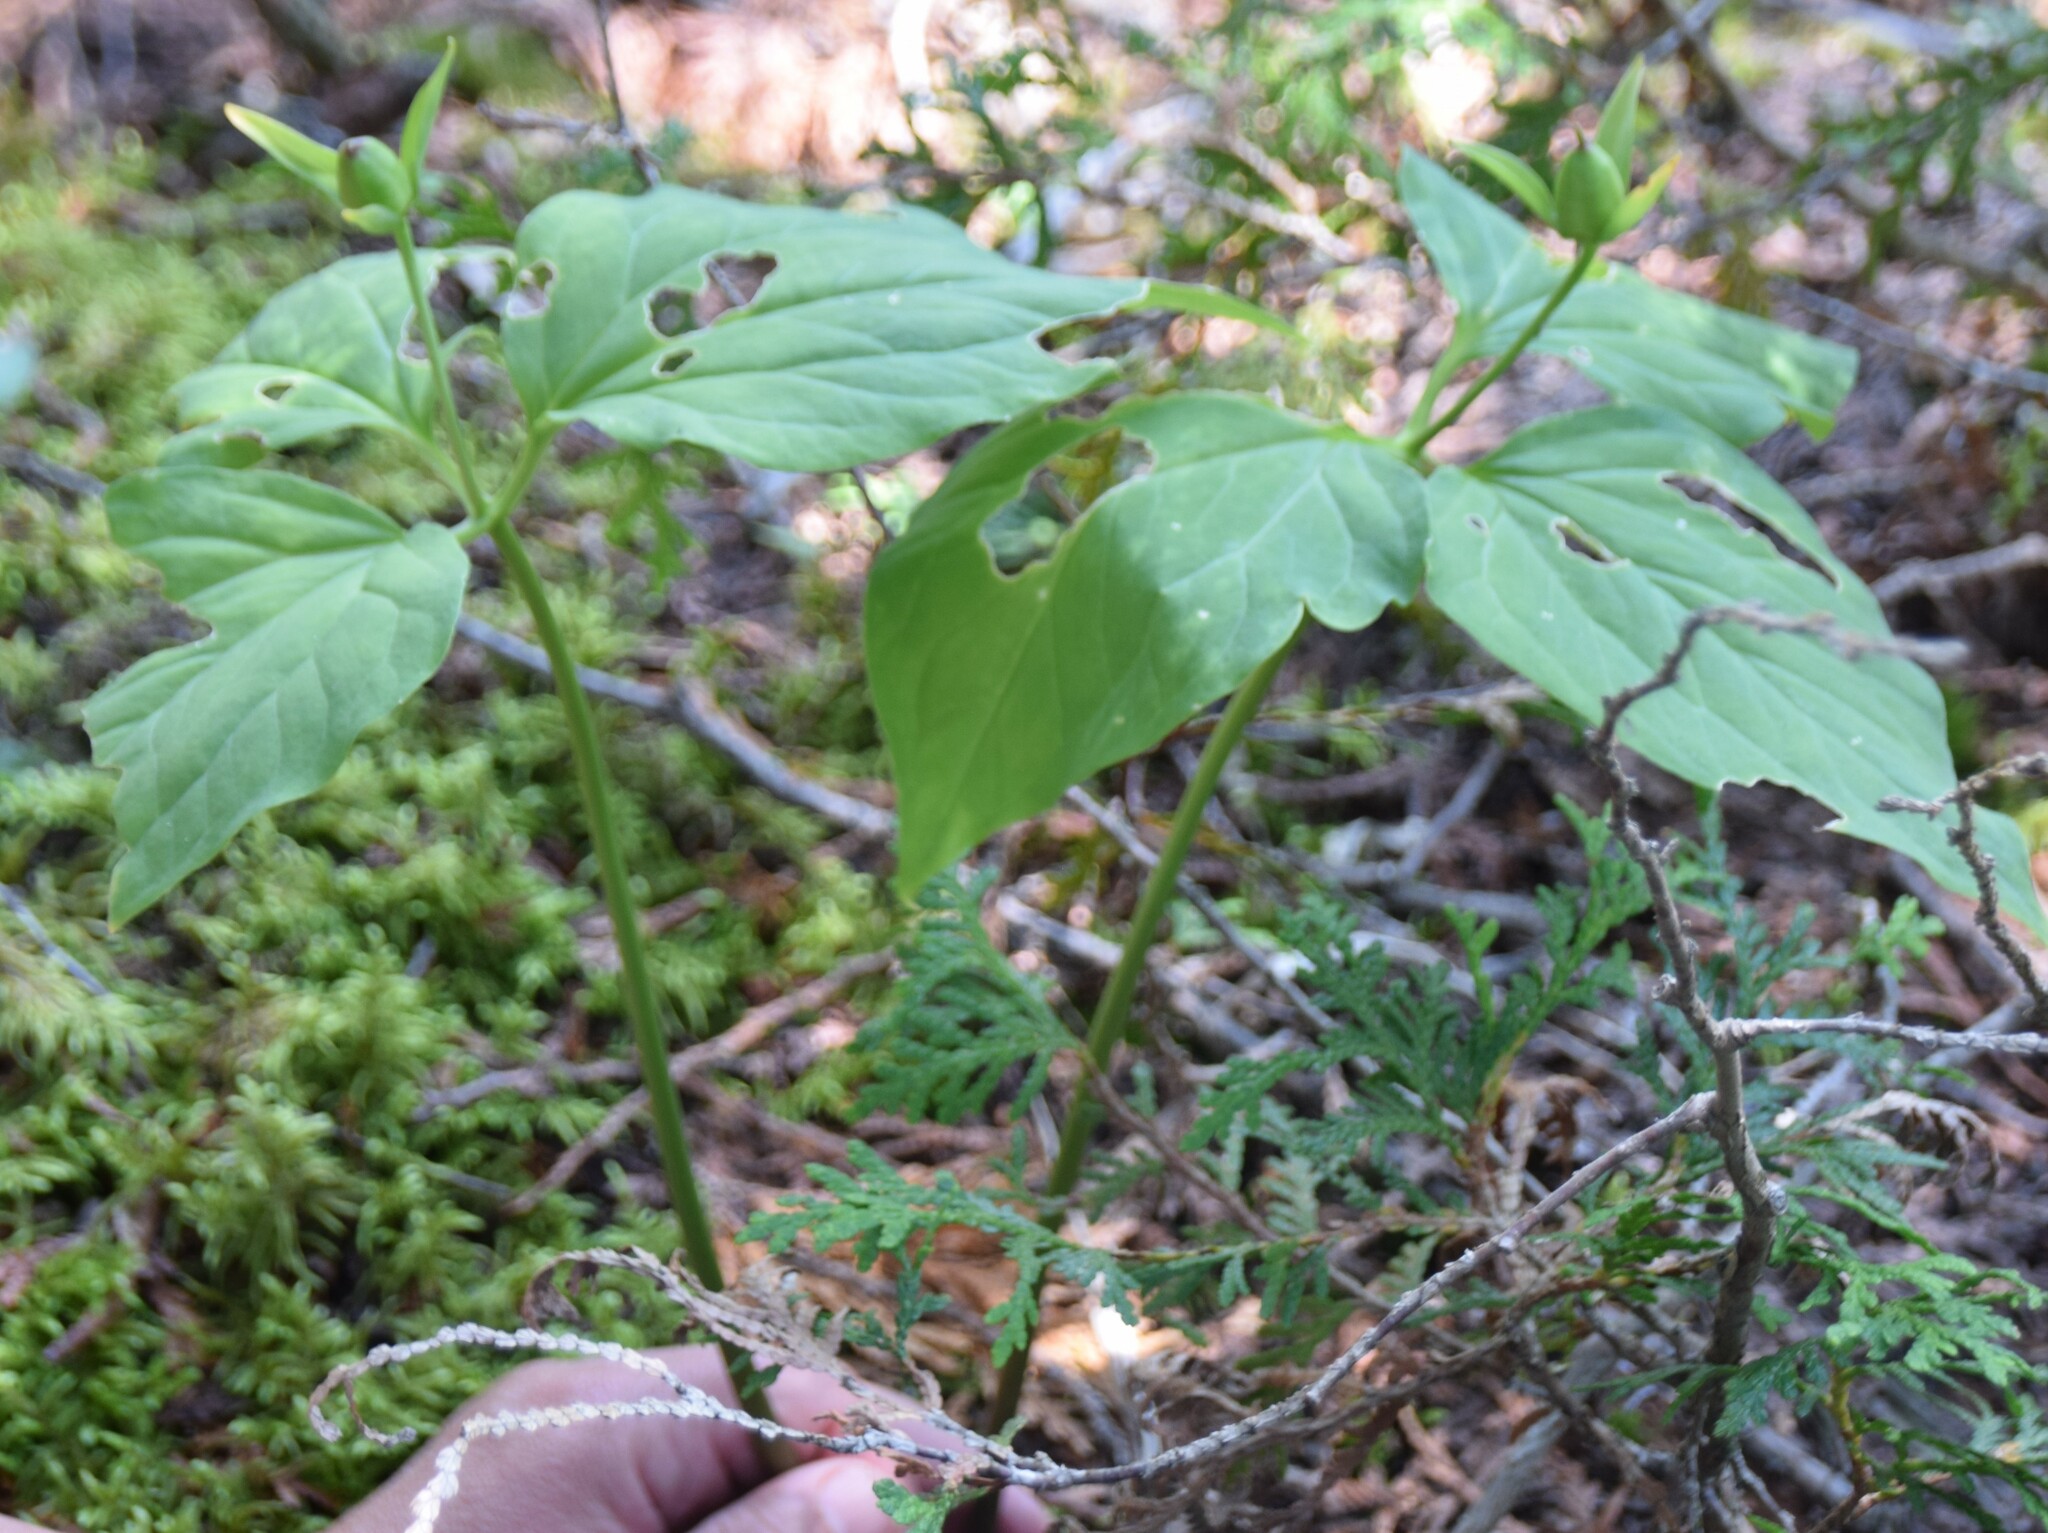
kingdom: Plantae
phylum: Tracheophyta
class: Liliopsida
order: Liliales
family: Melanthiaceae
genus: Trillium
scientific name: Trillium undulatum
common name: Paint trillium
